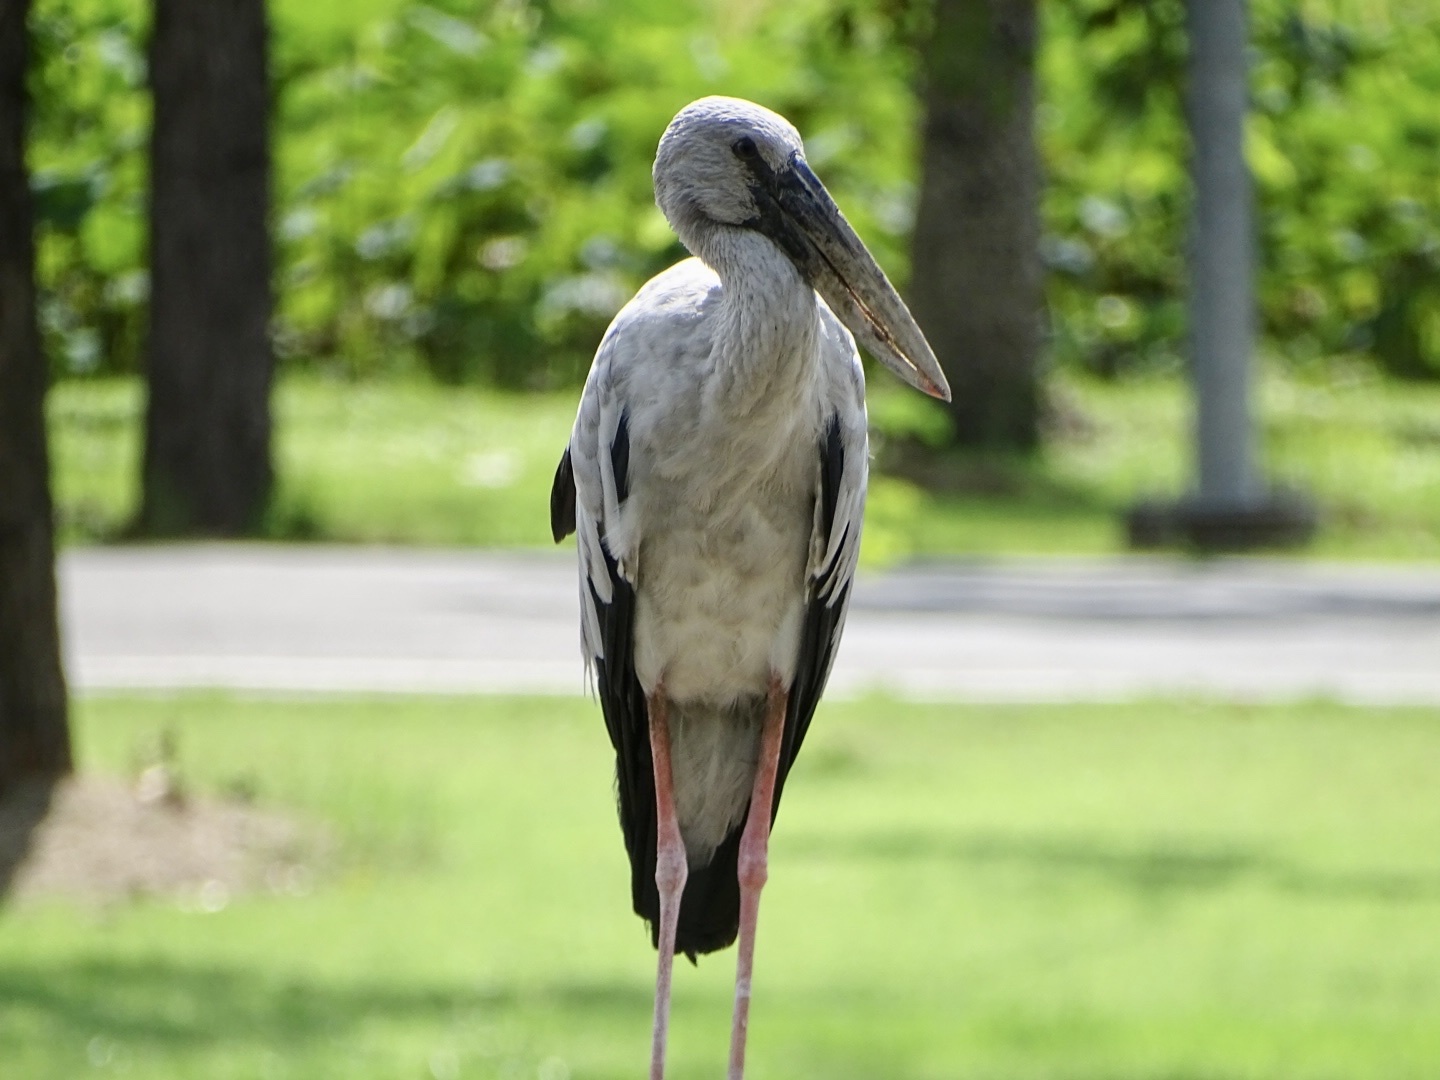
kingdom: Animalia
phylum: Chordata
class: Aves
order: Ciconiiformes
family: Ciconiidae
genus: Anastomus
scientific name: Anastomus oscitans
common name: Asian openbill
